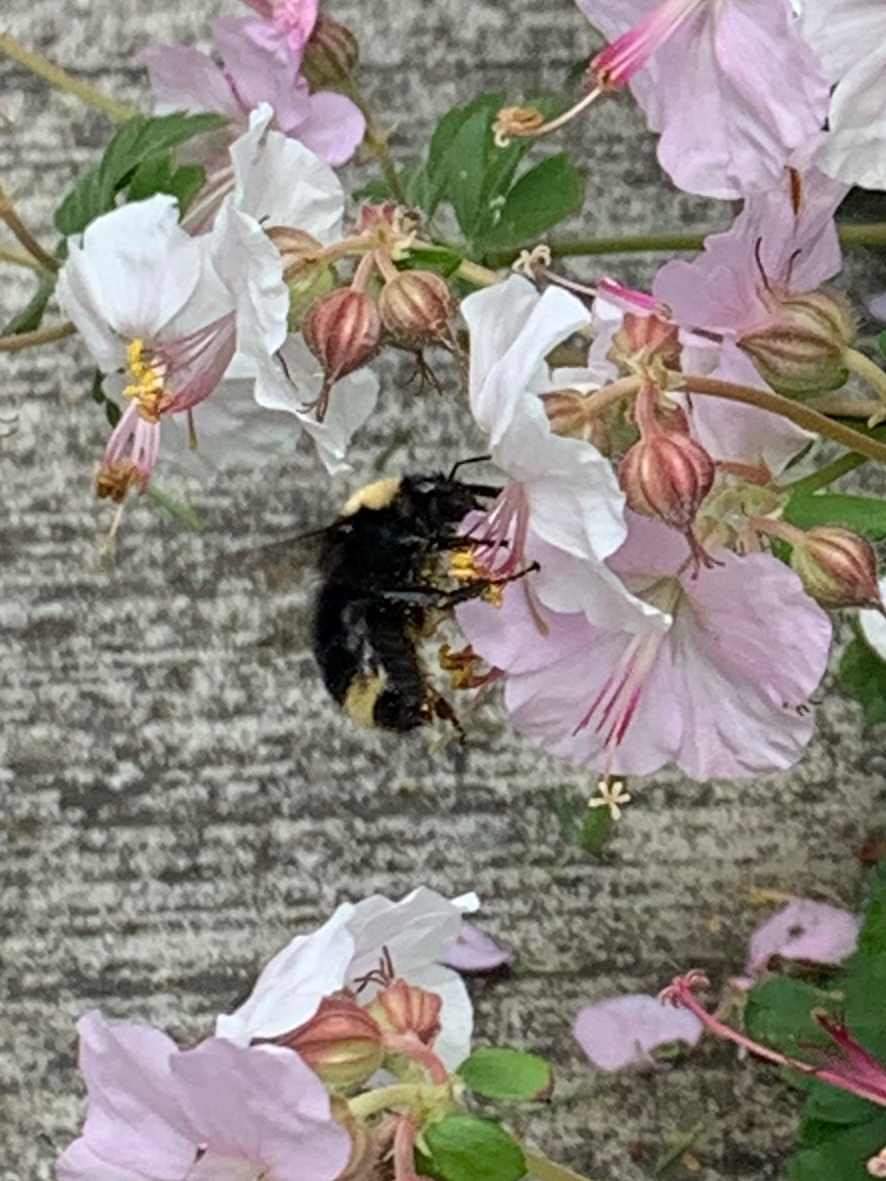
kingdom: Animalia
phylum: Arthropoda
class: Insecta
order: Hymenoptera
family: Apidae
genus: Bombus
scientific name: Bombus californicus
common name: California bumble bee
